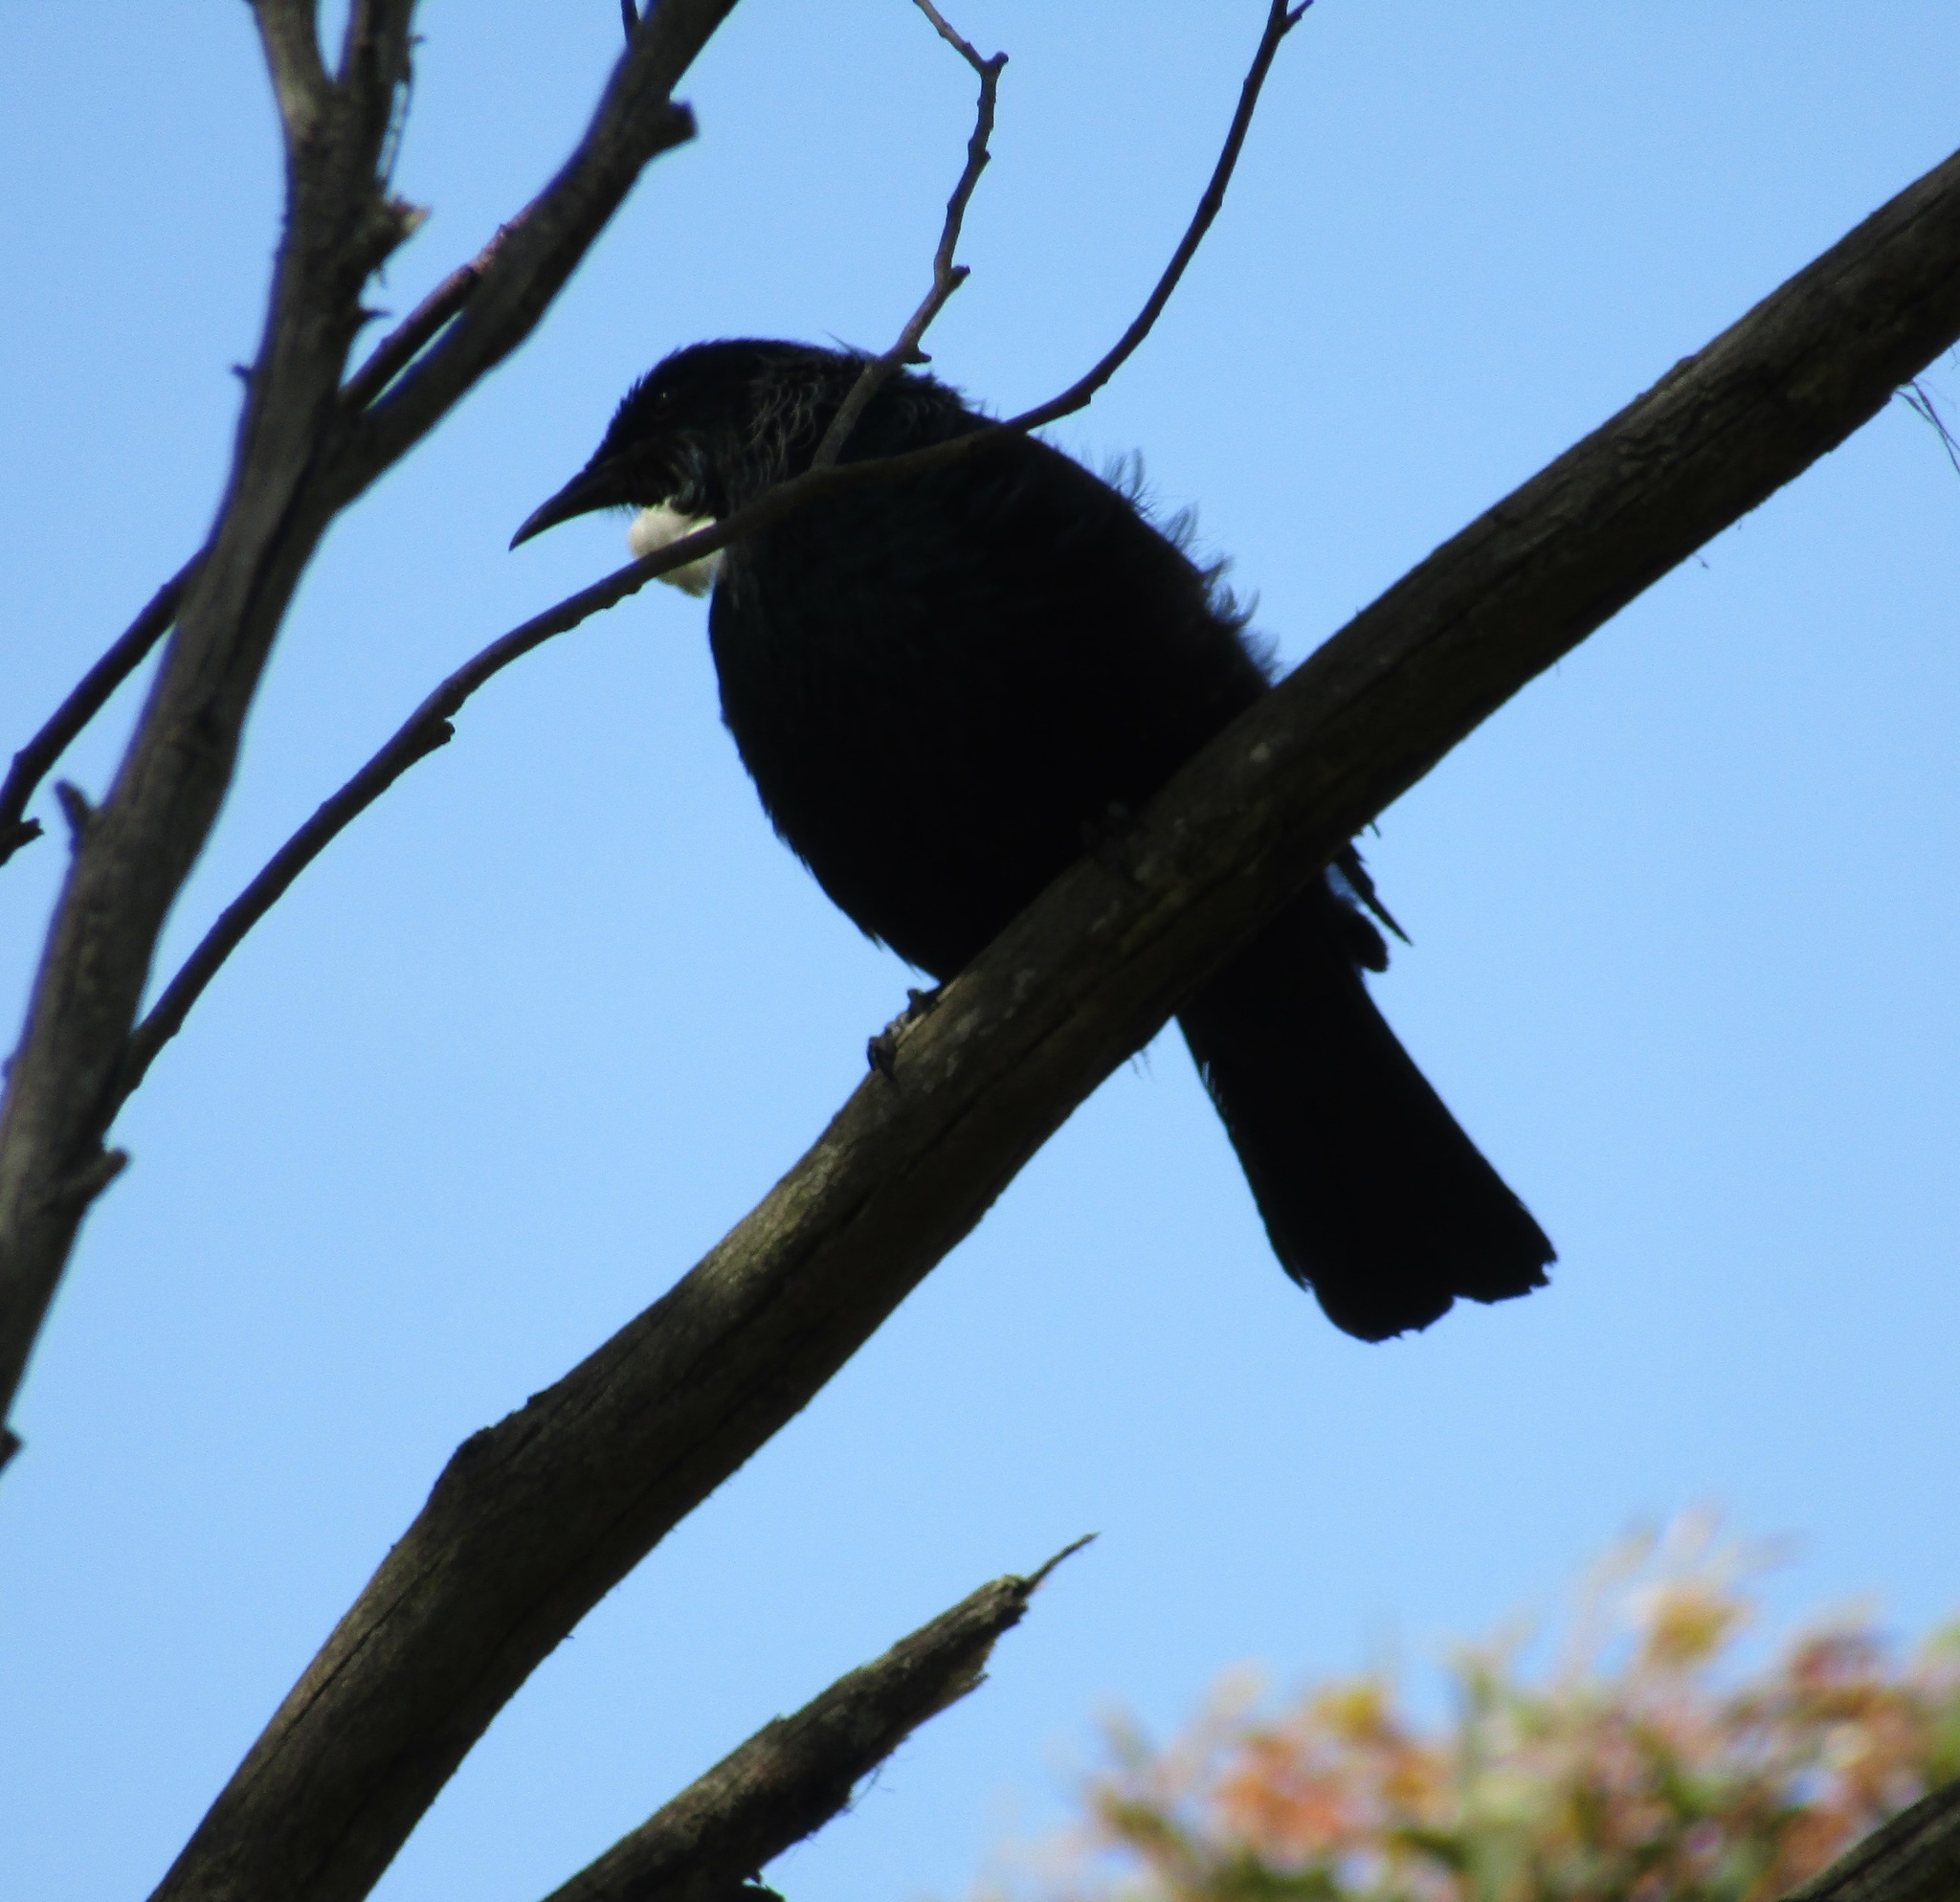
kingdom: Animalia
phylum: Chordata
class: Aves
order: Passeriformes
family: Meliphagidae
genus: Prosthemadera
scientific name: Prosthemadera novaeseelandiae
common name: Tui
